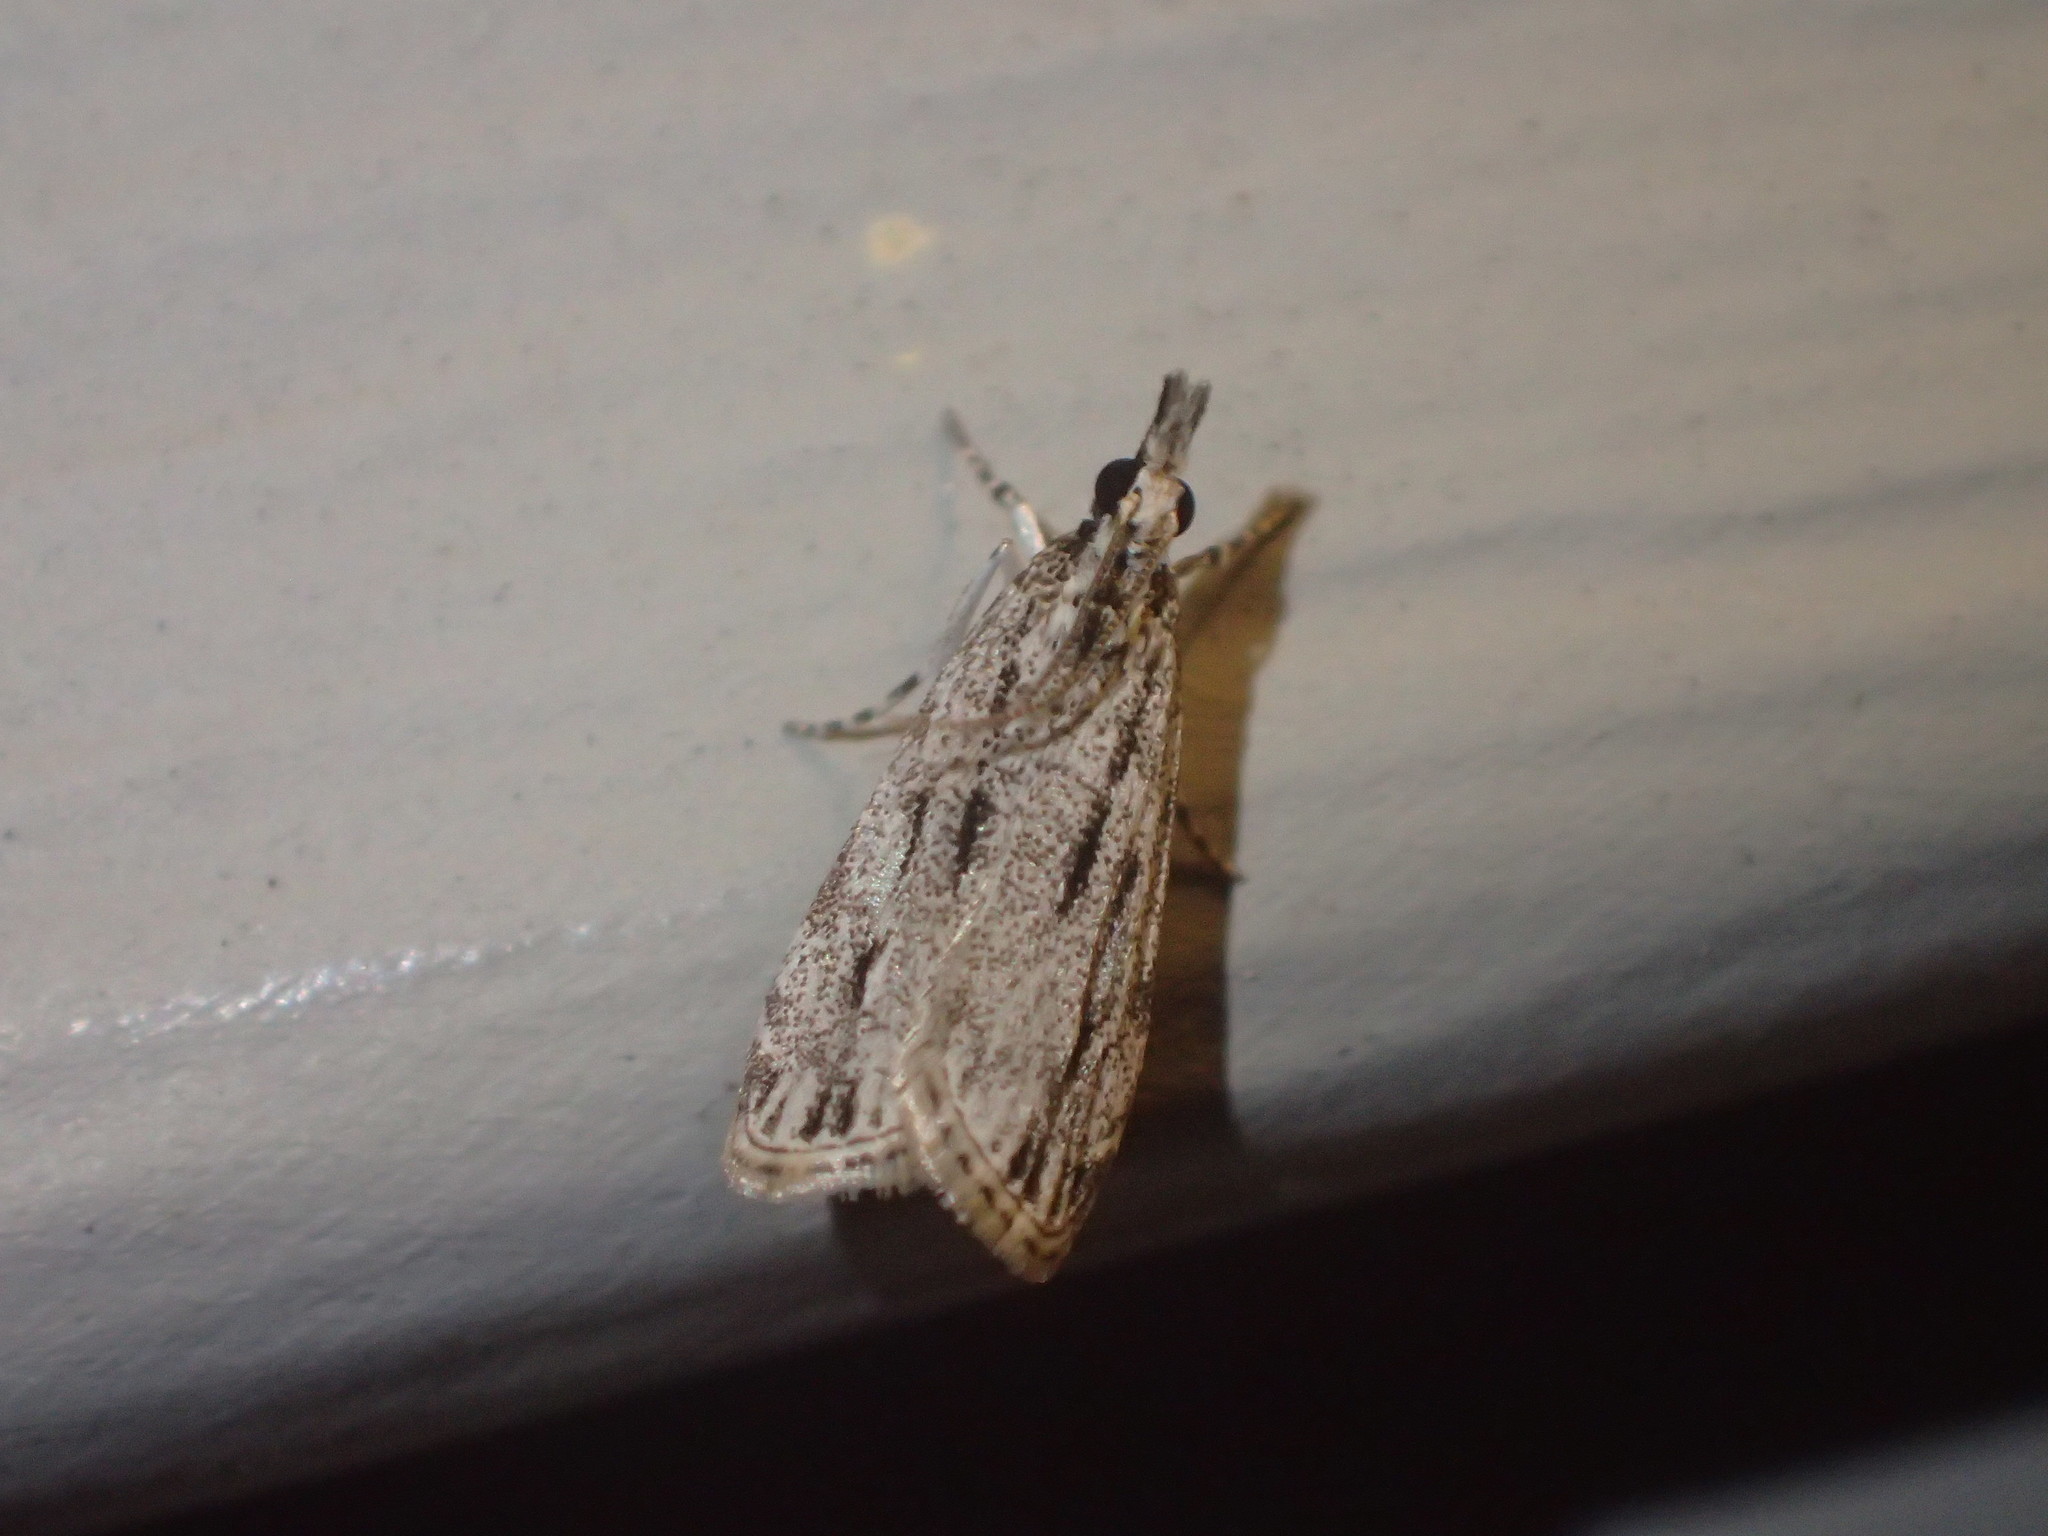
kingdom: Animalia
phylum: Arthropoda
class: Insecta
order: Lepidoptera
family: Crambidae
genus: Eudonia
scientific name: Eudonia strigalis
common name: Striped eudonia moth
